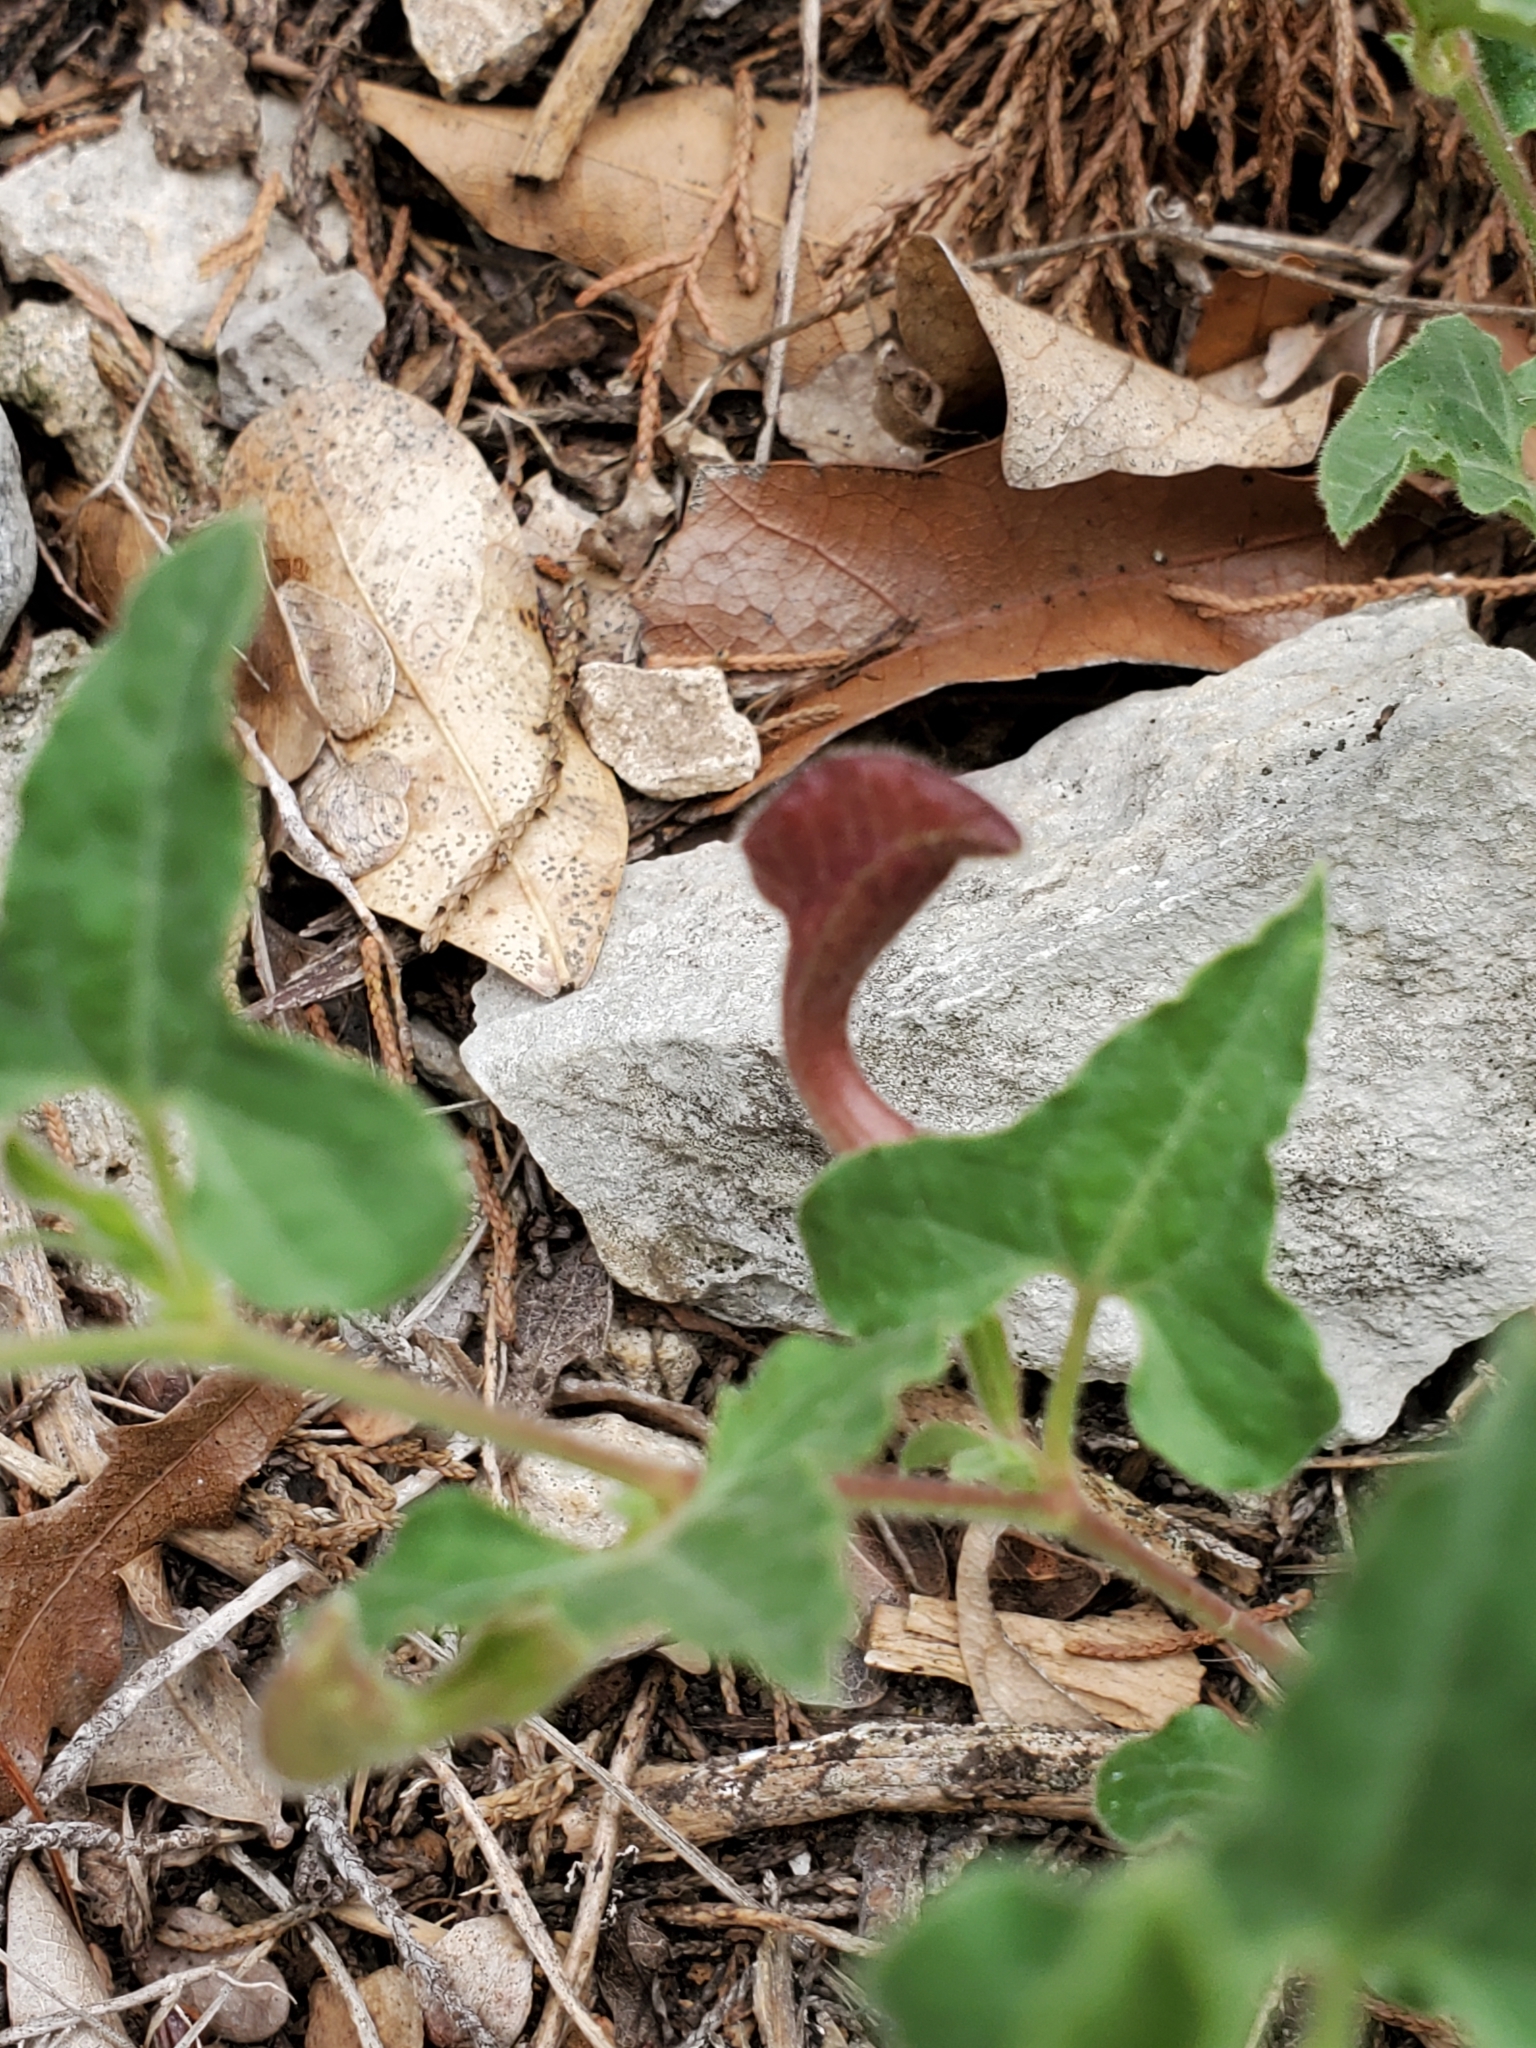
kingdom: Plantae
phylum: Tracheophyta
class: Magnoliopsida
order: Piperales
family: Aristolochiaceae
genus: Aristolochia
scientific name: Aristolochia coryi
